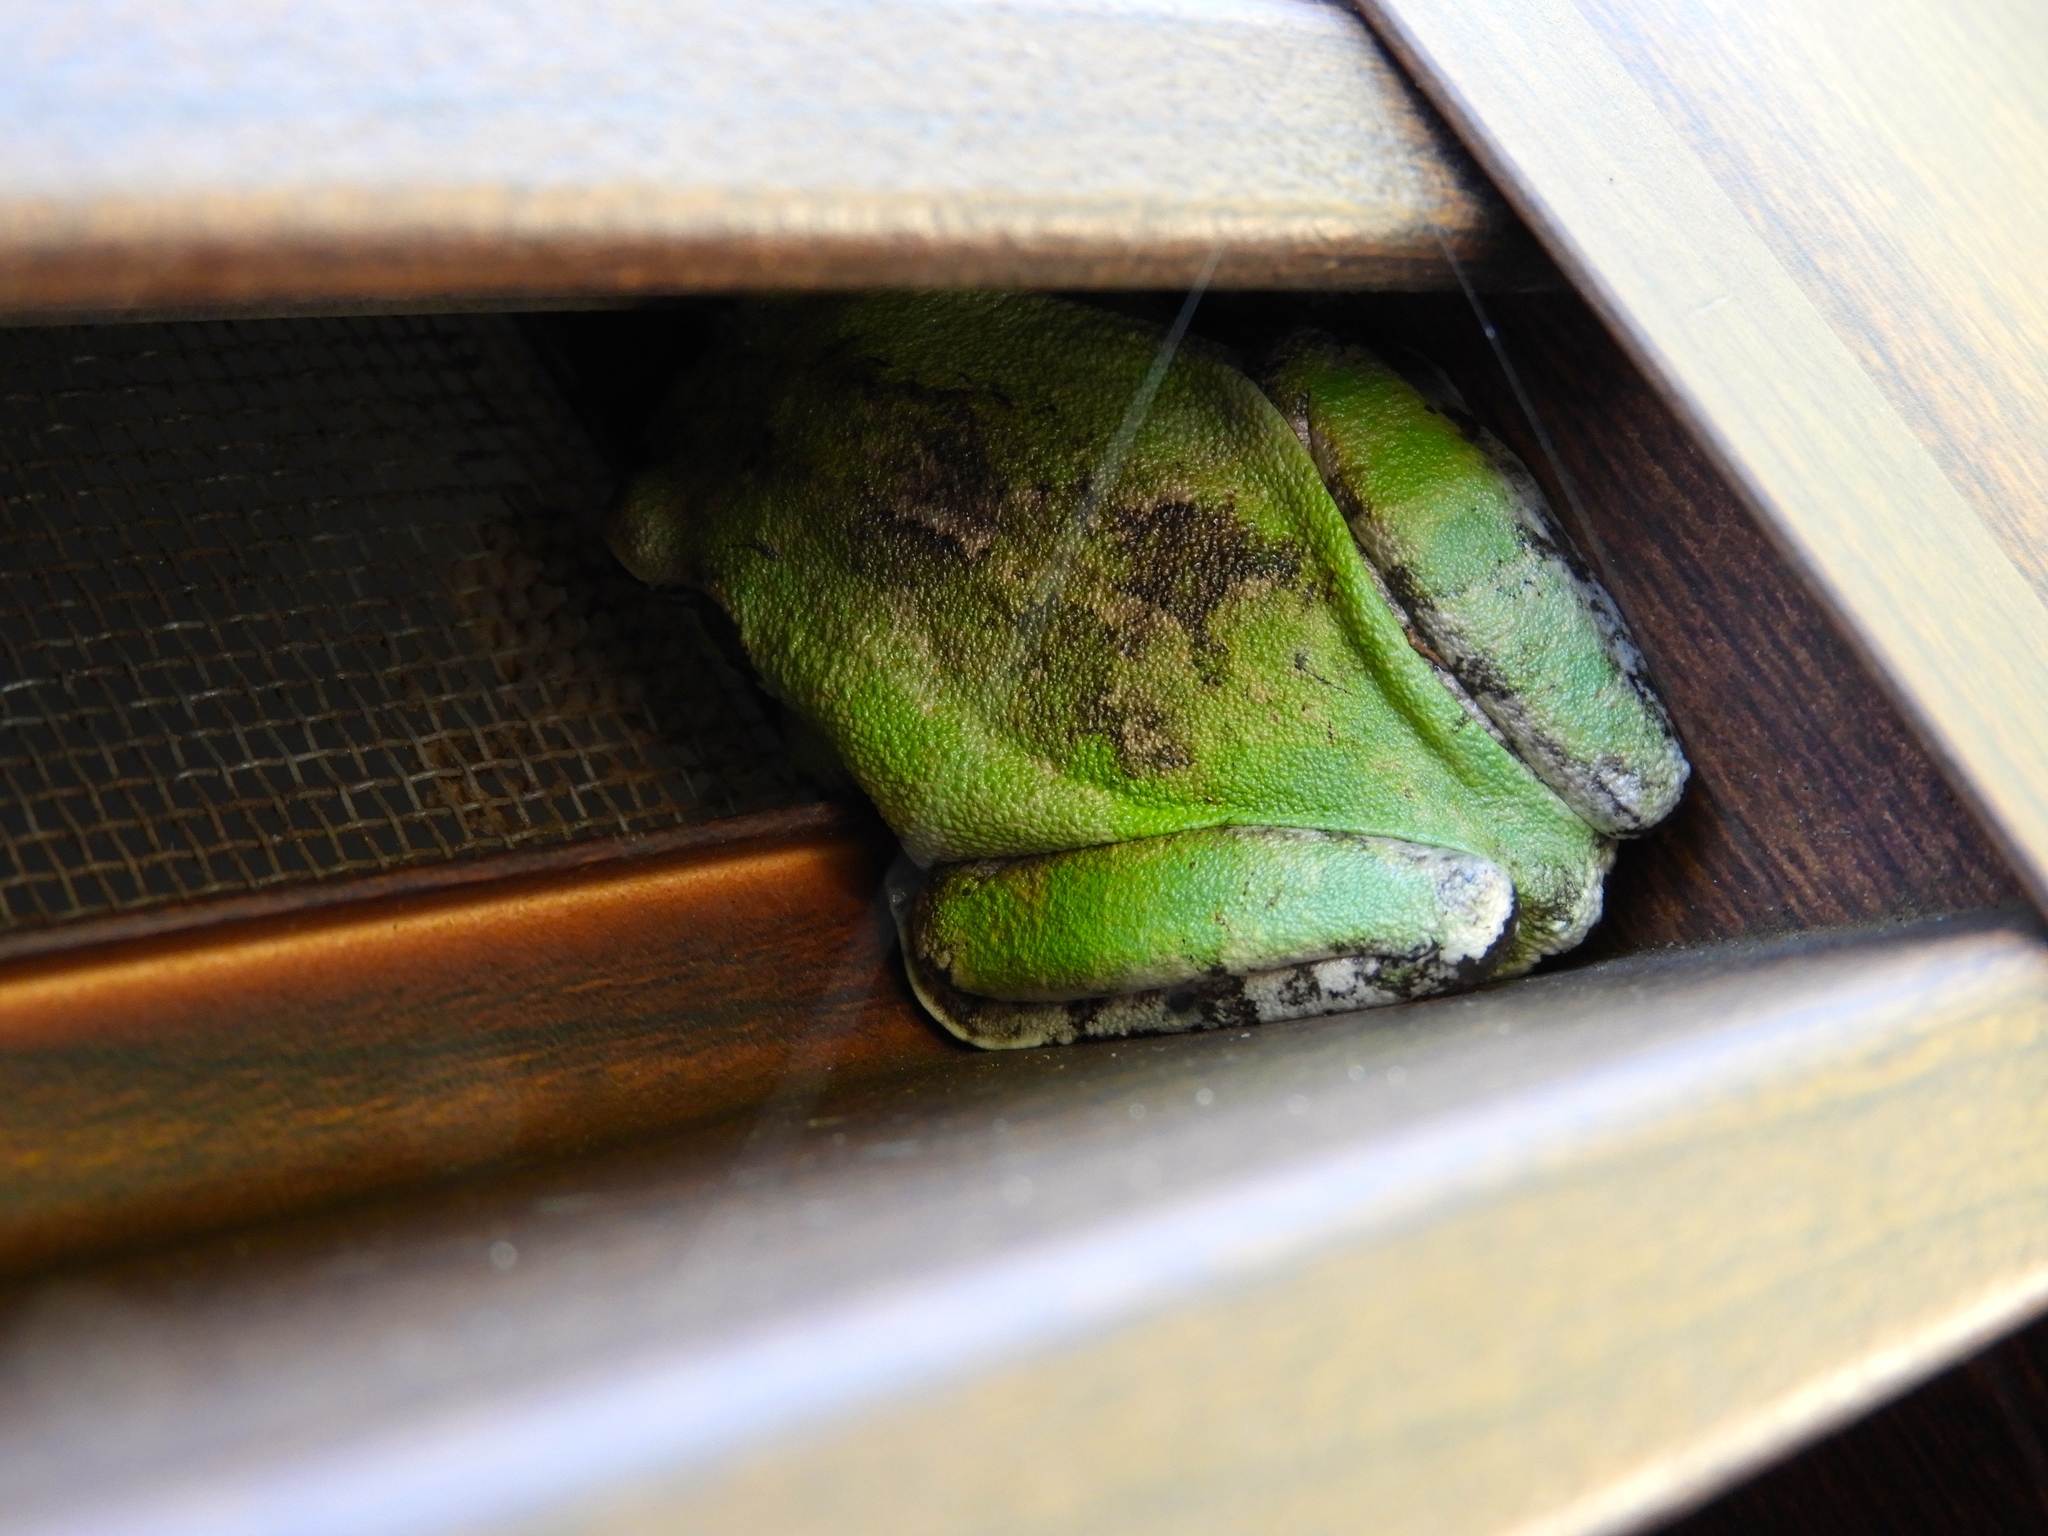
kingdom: Animalia
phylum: Chordata
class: Amphibia
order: Anura
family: Hylidae
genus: Smilisca
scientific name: Smilisca baudinii
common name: Mexican smilisca
